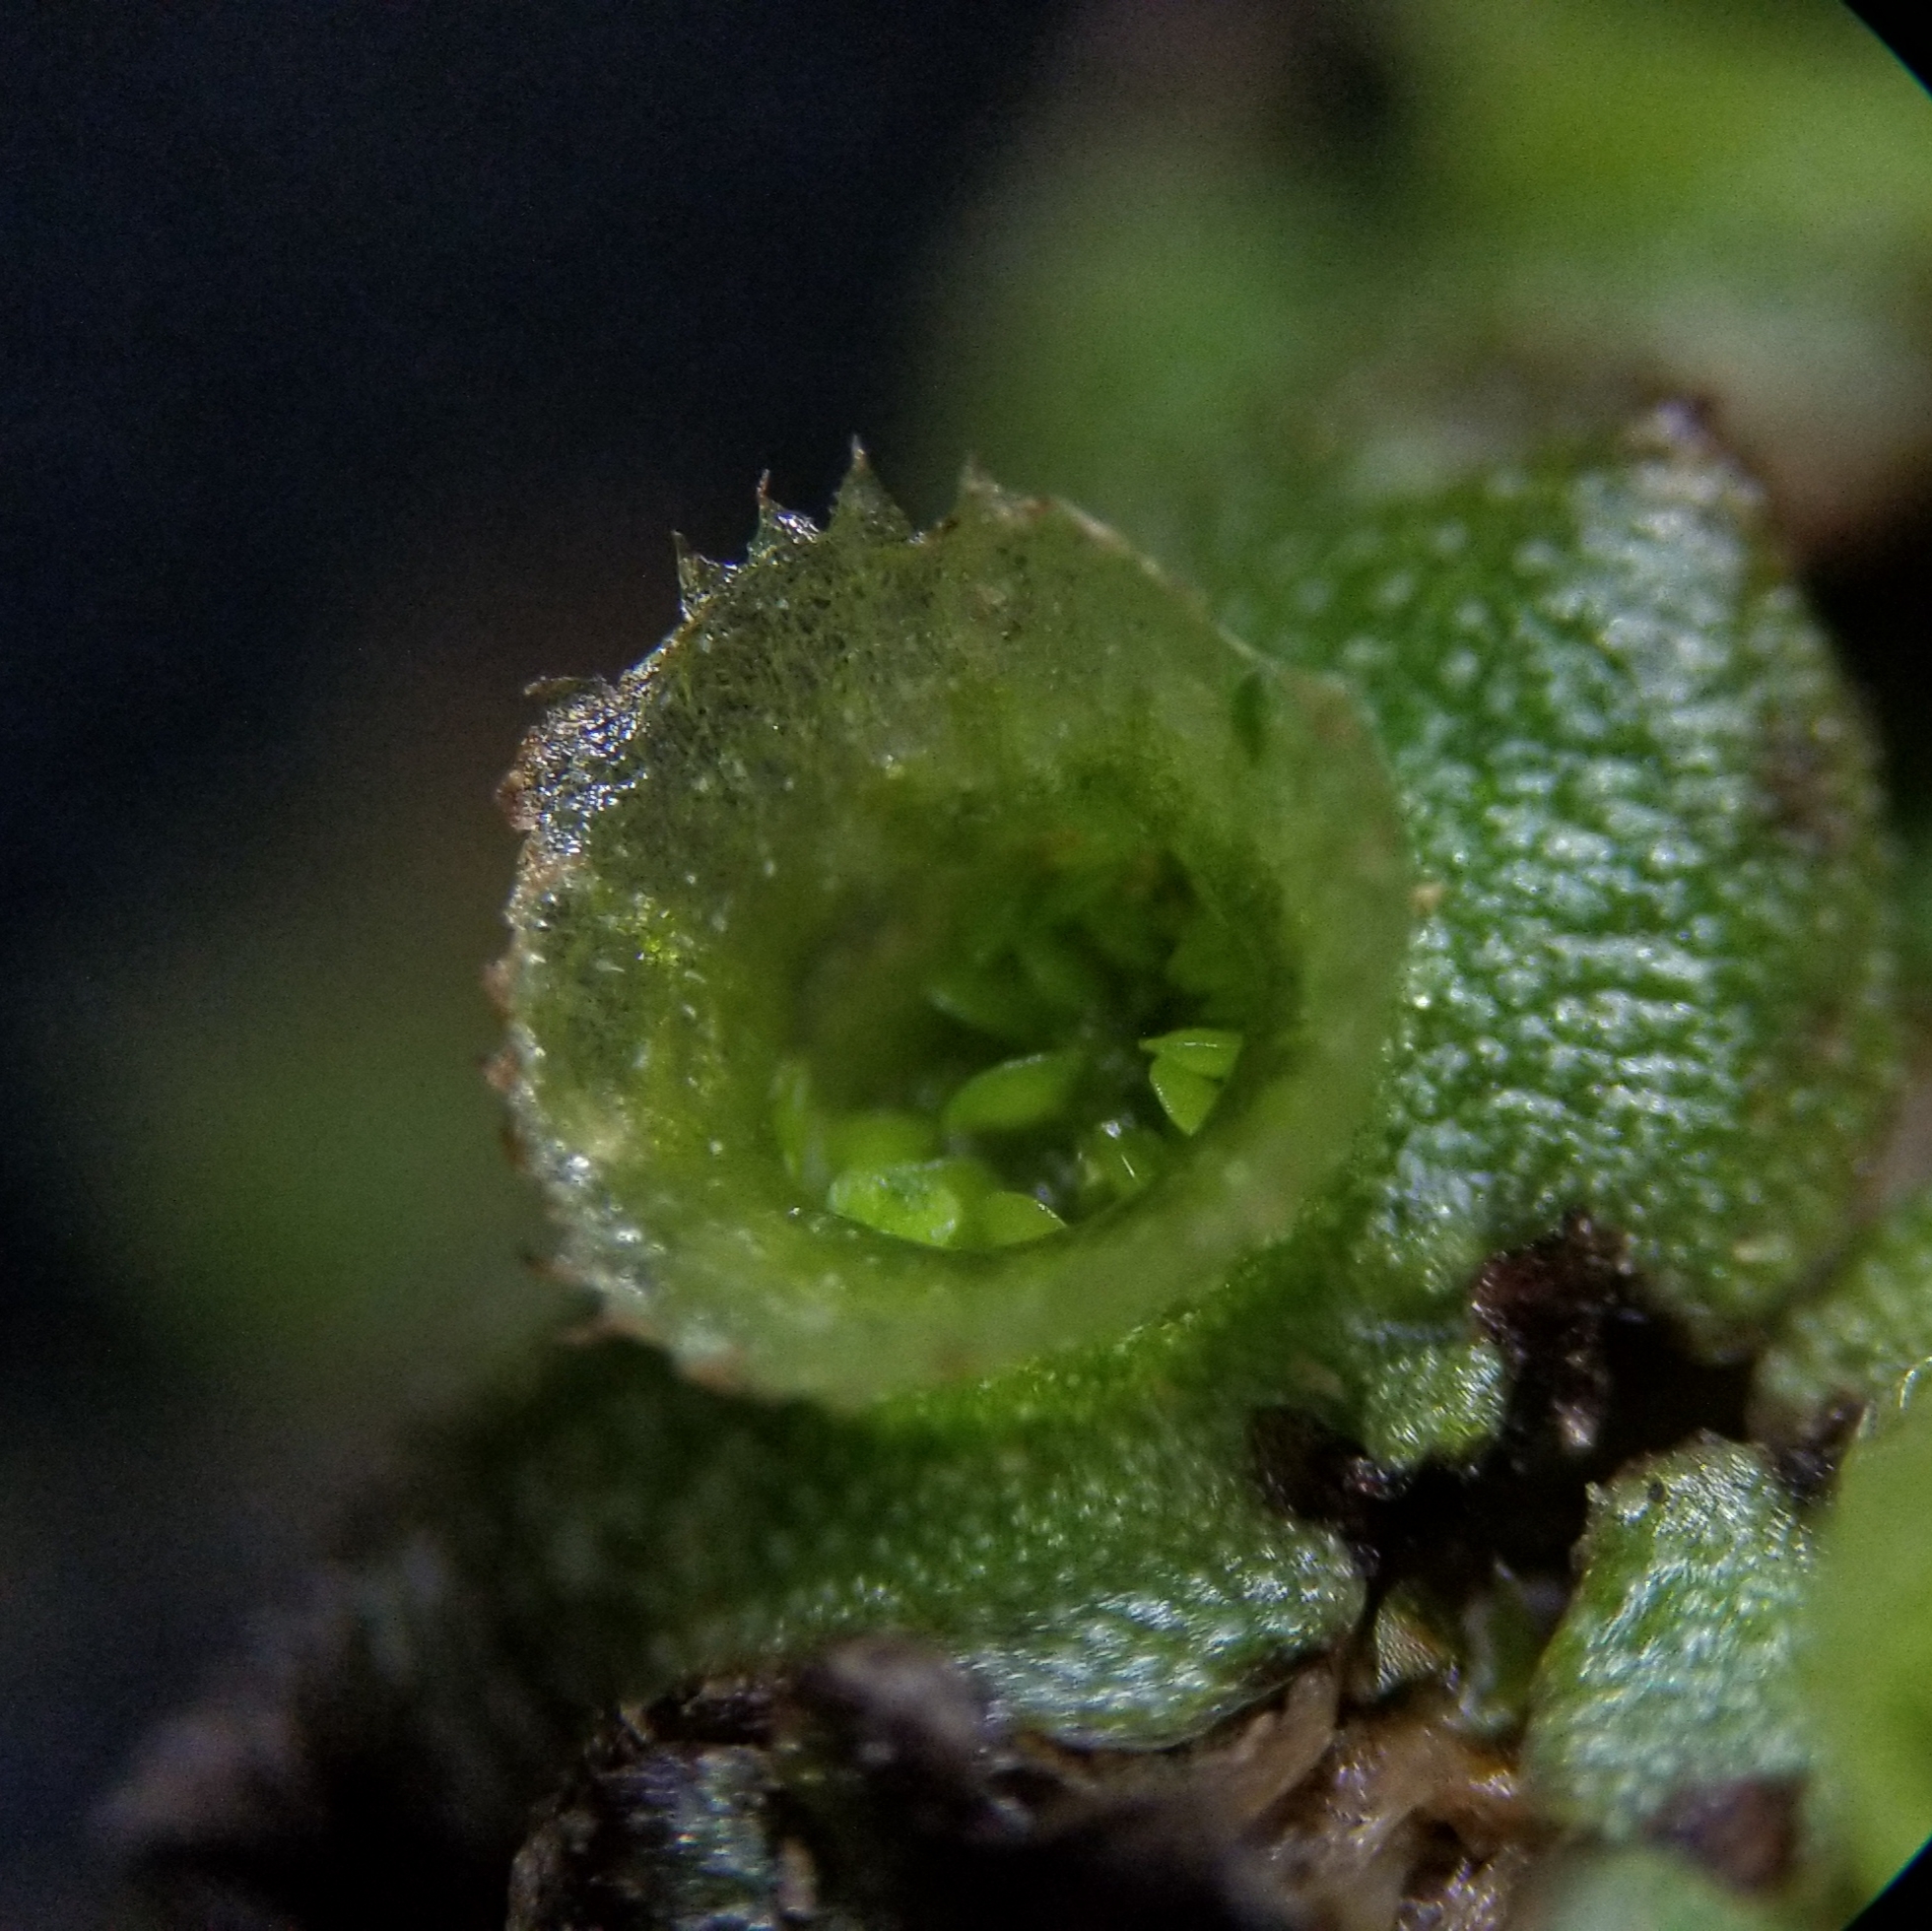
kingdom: Plantae
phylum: Marchantiophyta
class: Marchantiopsida
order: Marchantiales
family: Marchantiaceae
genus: Marchantia
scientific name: Marchantia polymorpha
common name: Common liverwort
